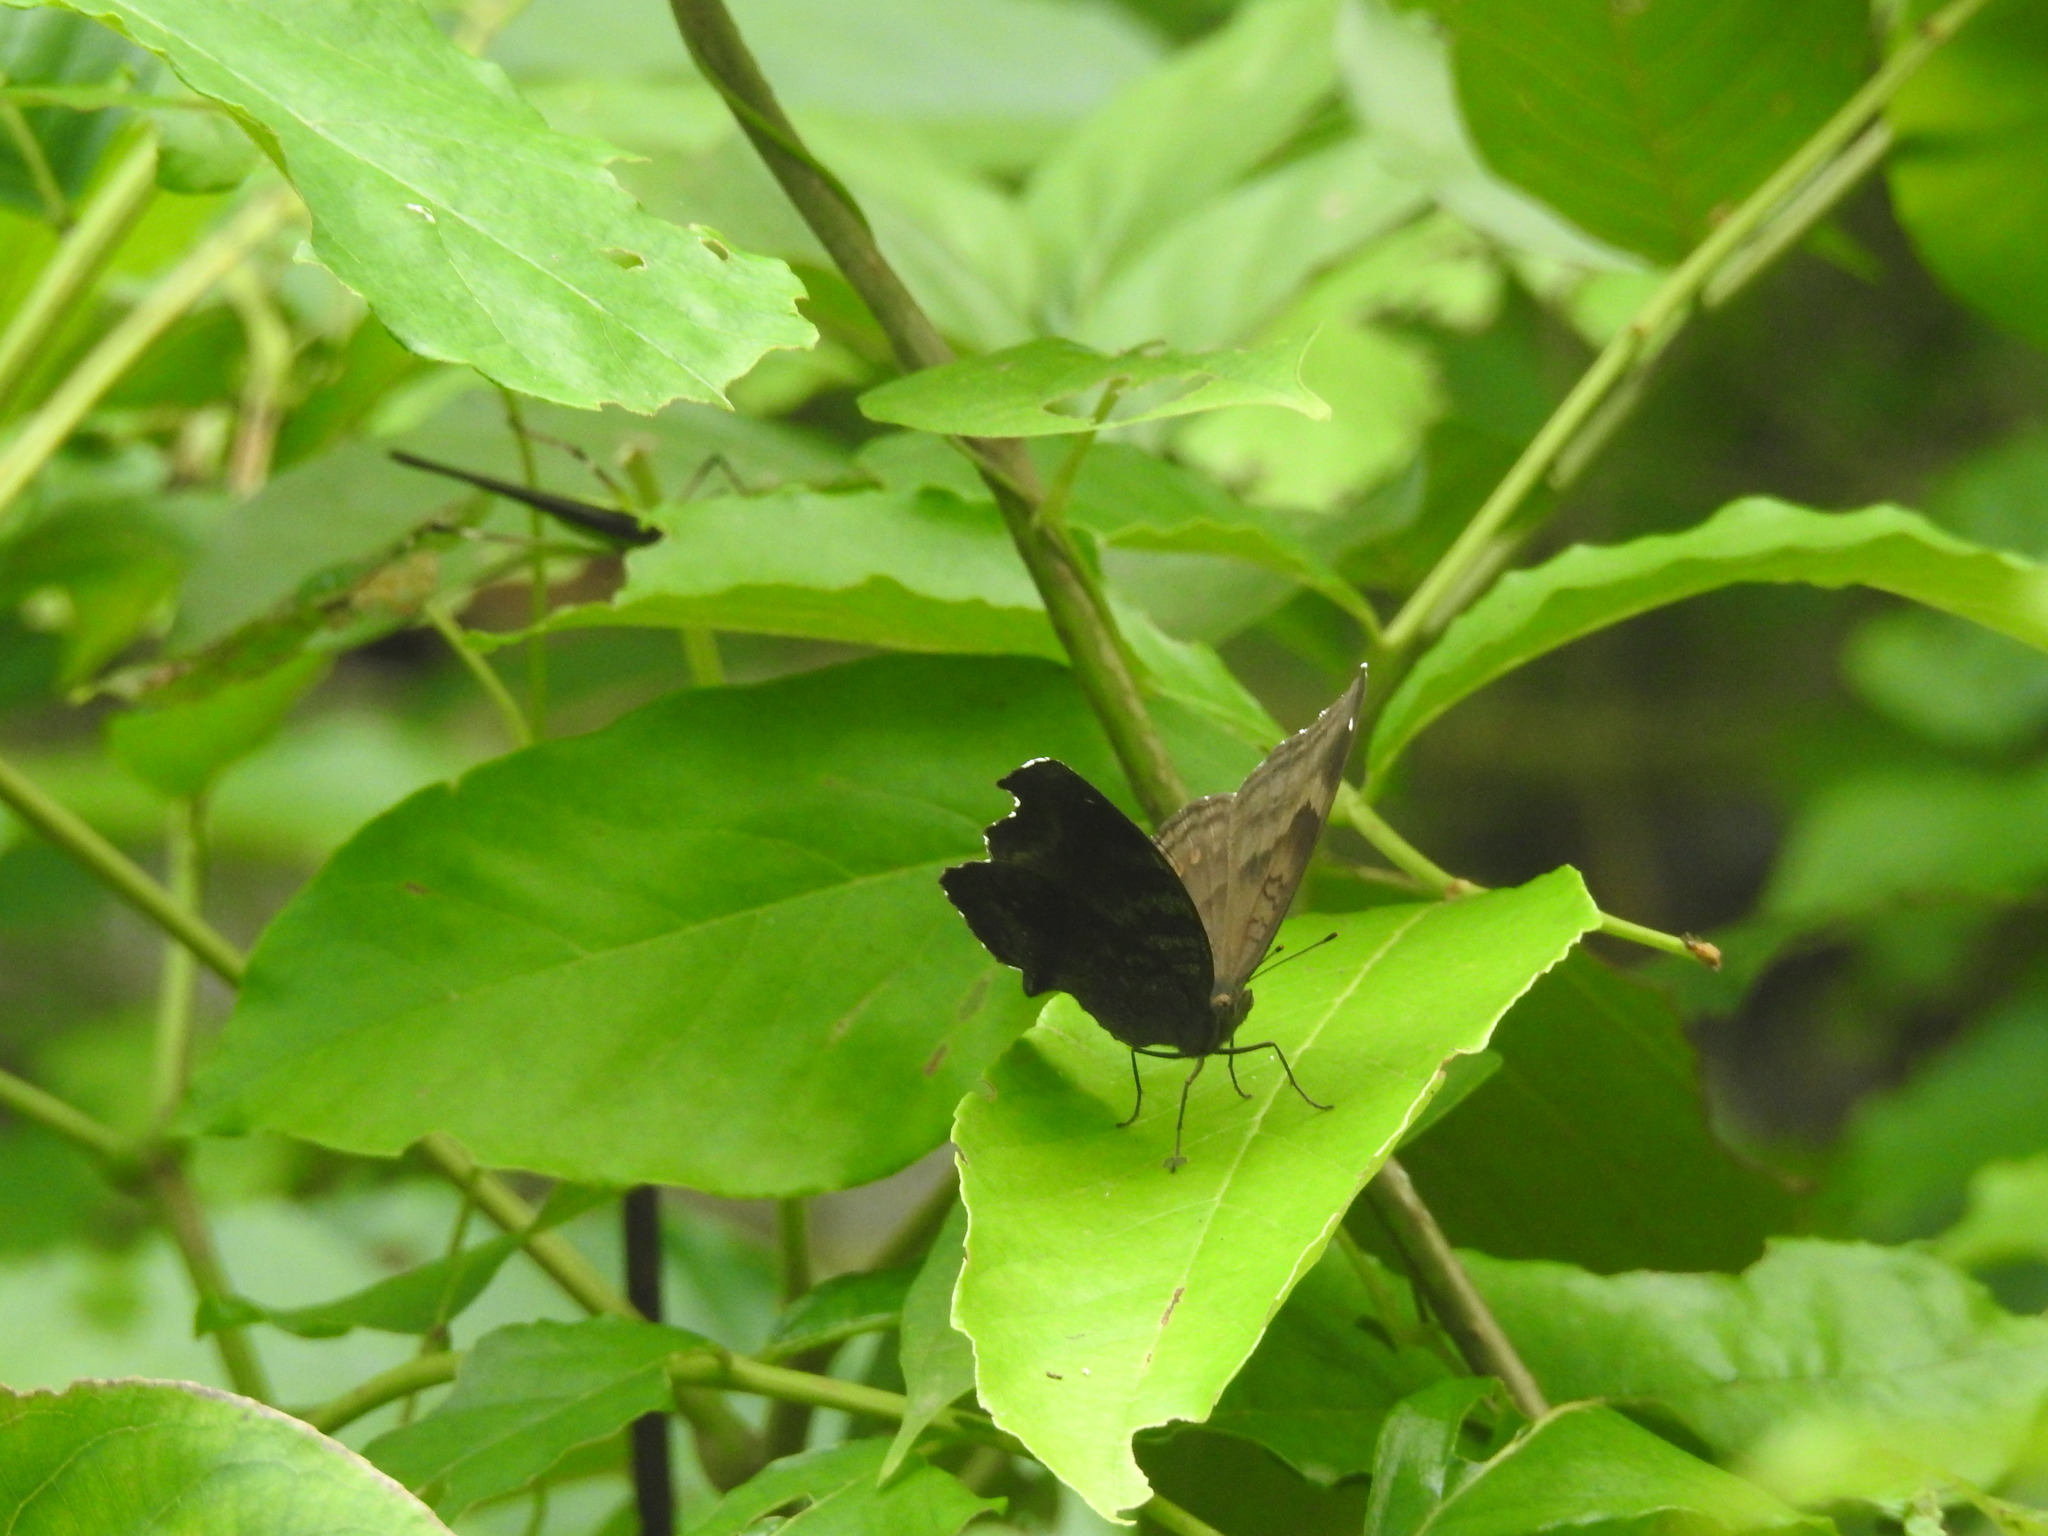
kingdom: Animalia
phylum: Arthropoda
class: Insecta
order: Lepidoptera
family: Nymphalidae
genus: Junonia
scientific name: Junonia iphita
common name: Chocolate pansy
